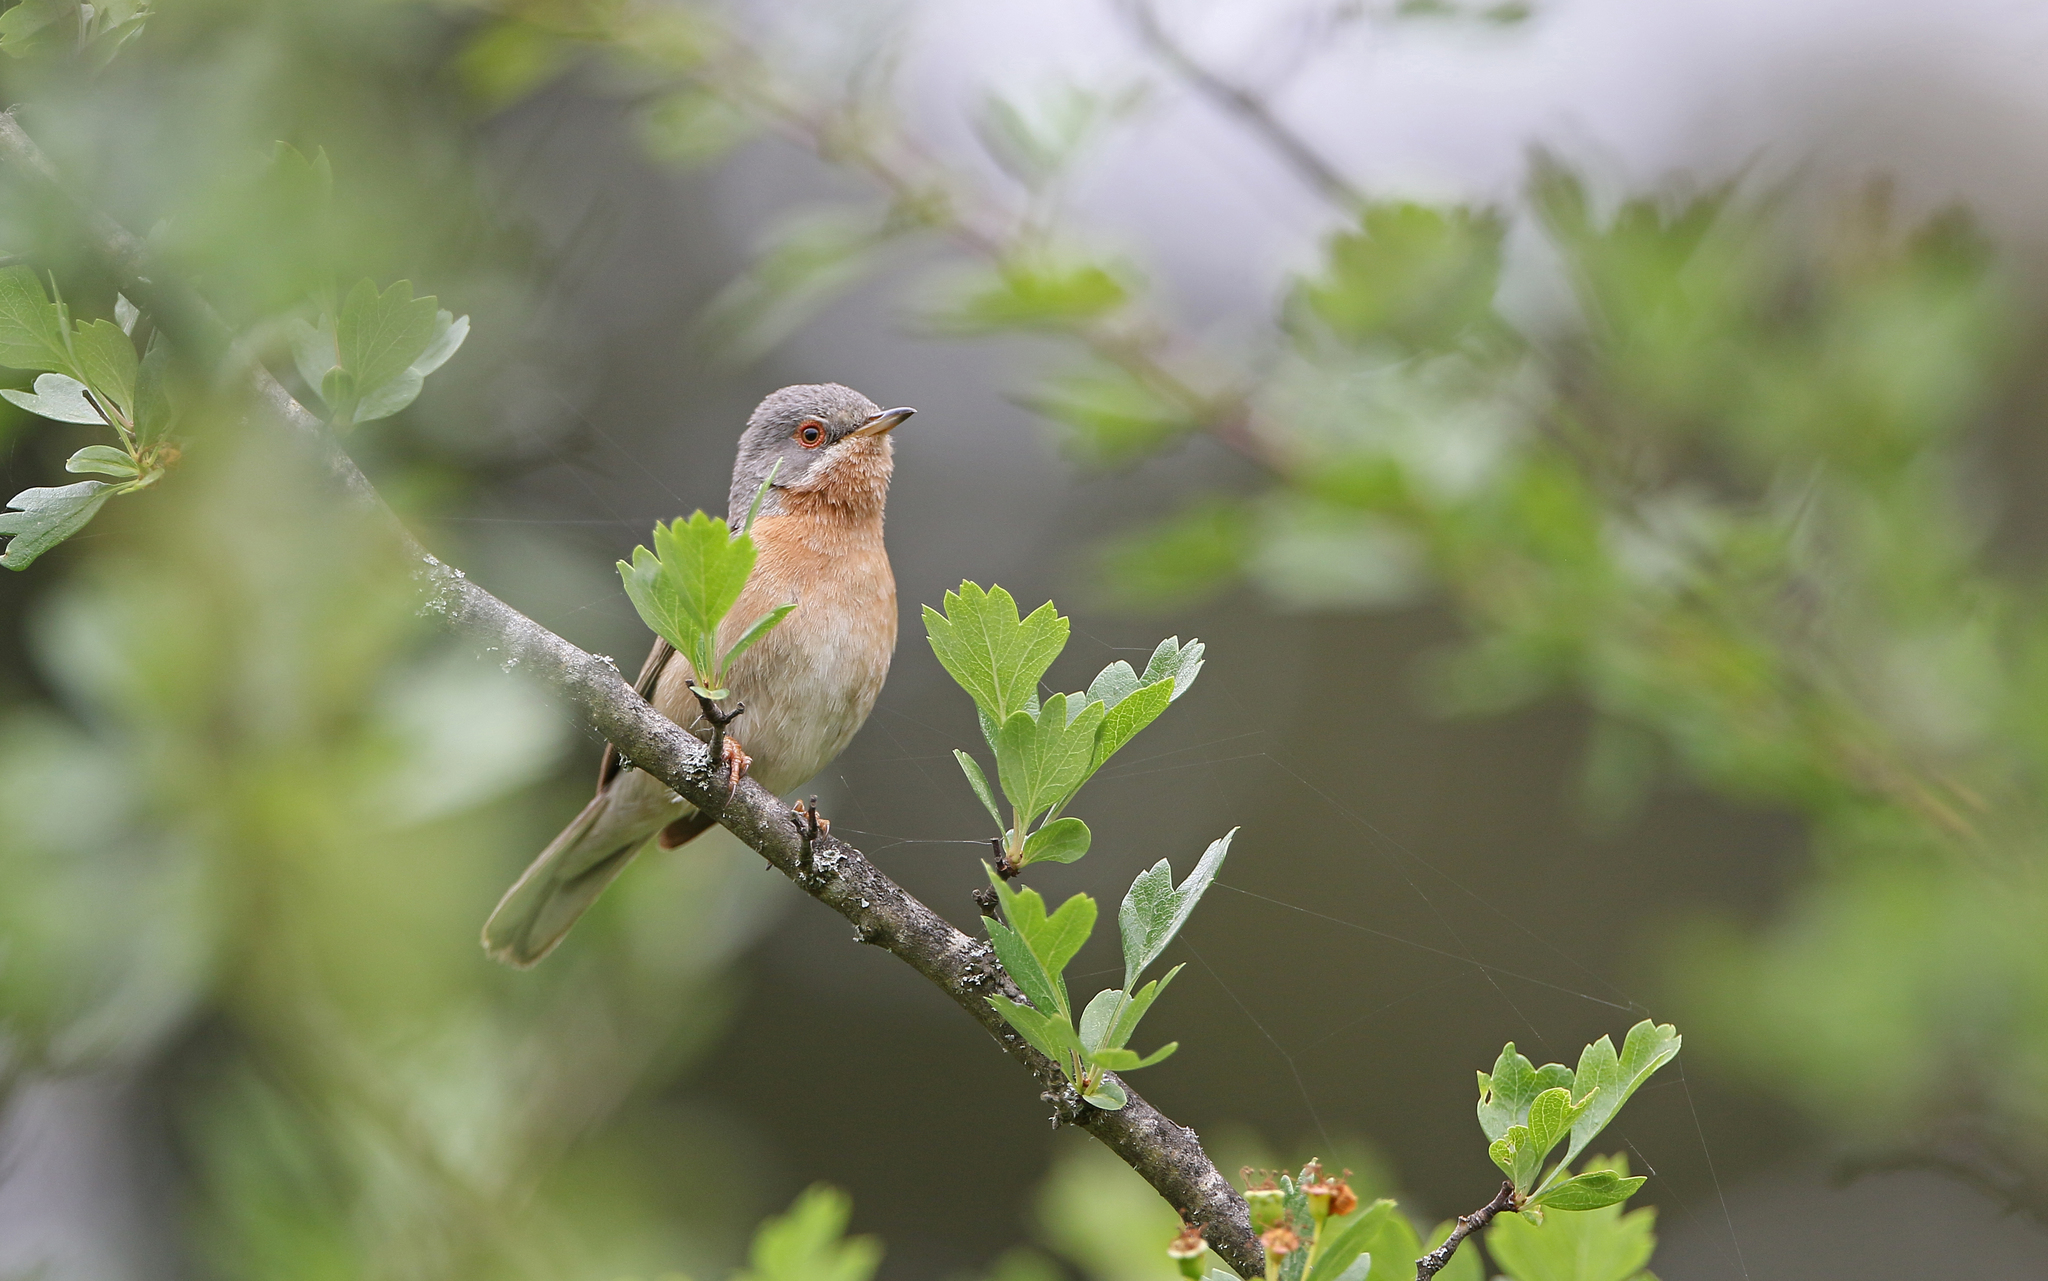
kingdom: Animalia
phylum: Chordata
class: Aves
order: Passeriformes
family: Sylviidae
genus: Curruca
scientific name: Curruca iberiae
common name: Western subalpine warbler
